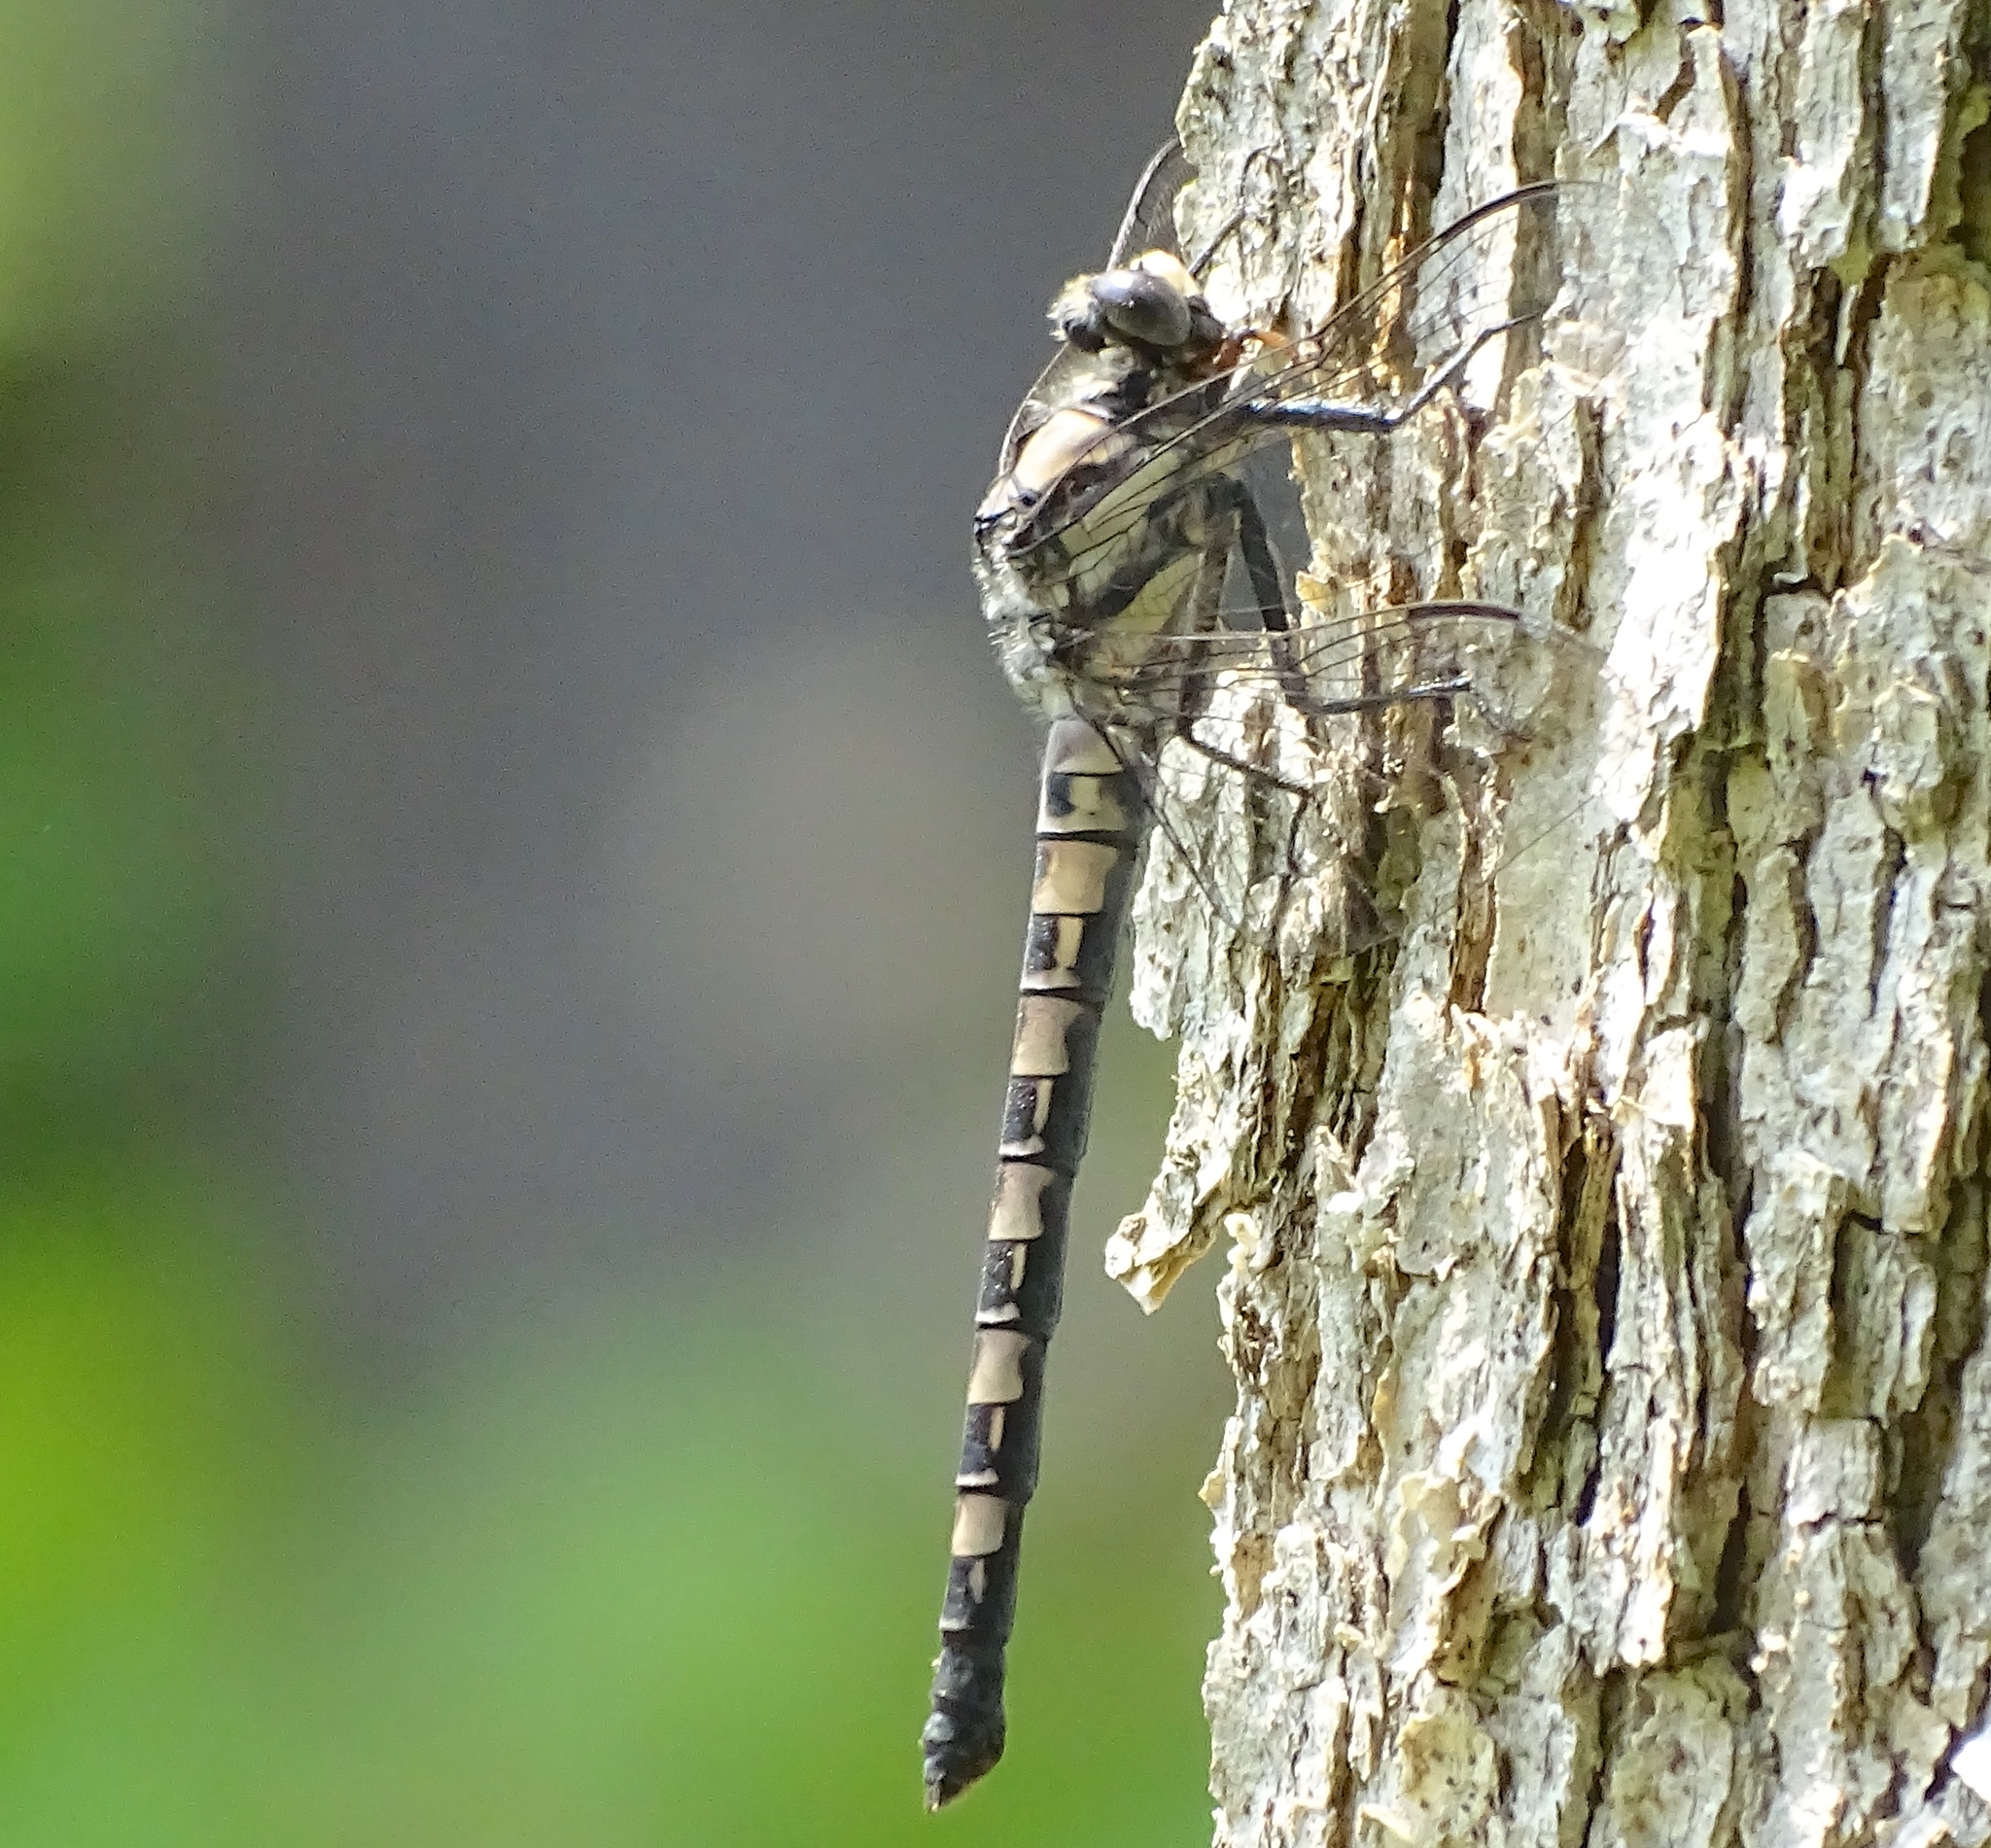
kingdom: Animalia
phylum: Arthropoda
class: Insecta
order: Odonata
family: Petaluridae
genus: Tachopteryx
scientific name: Tachopteryx thoreyi
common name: Gray petaltail
